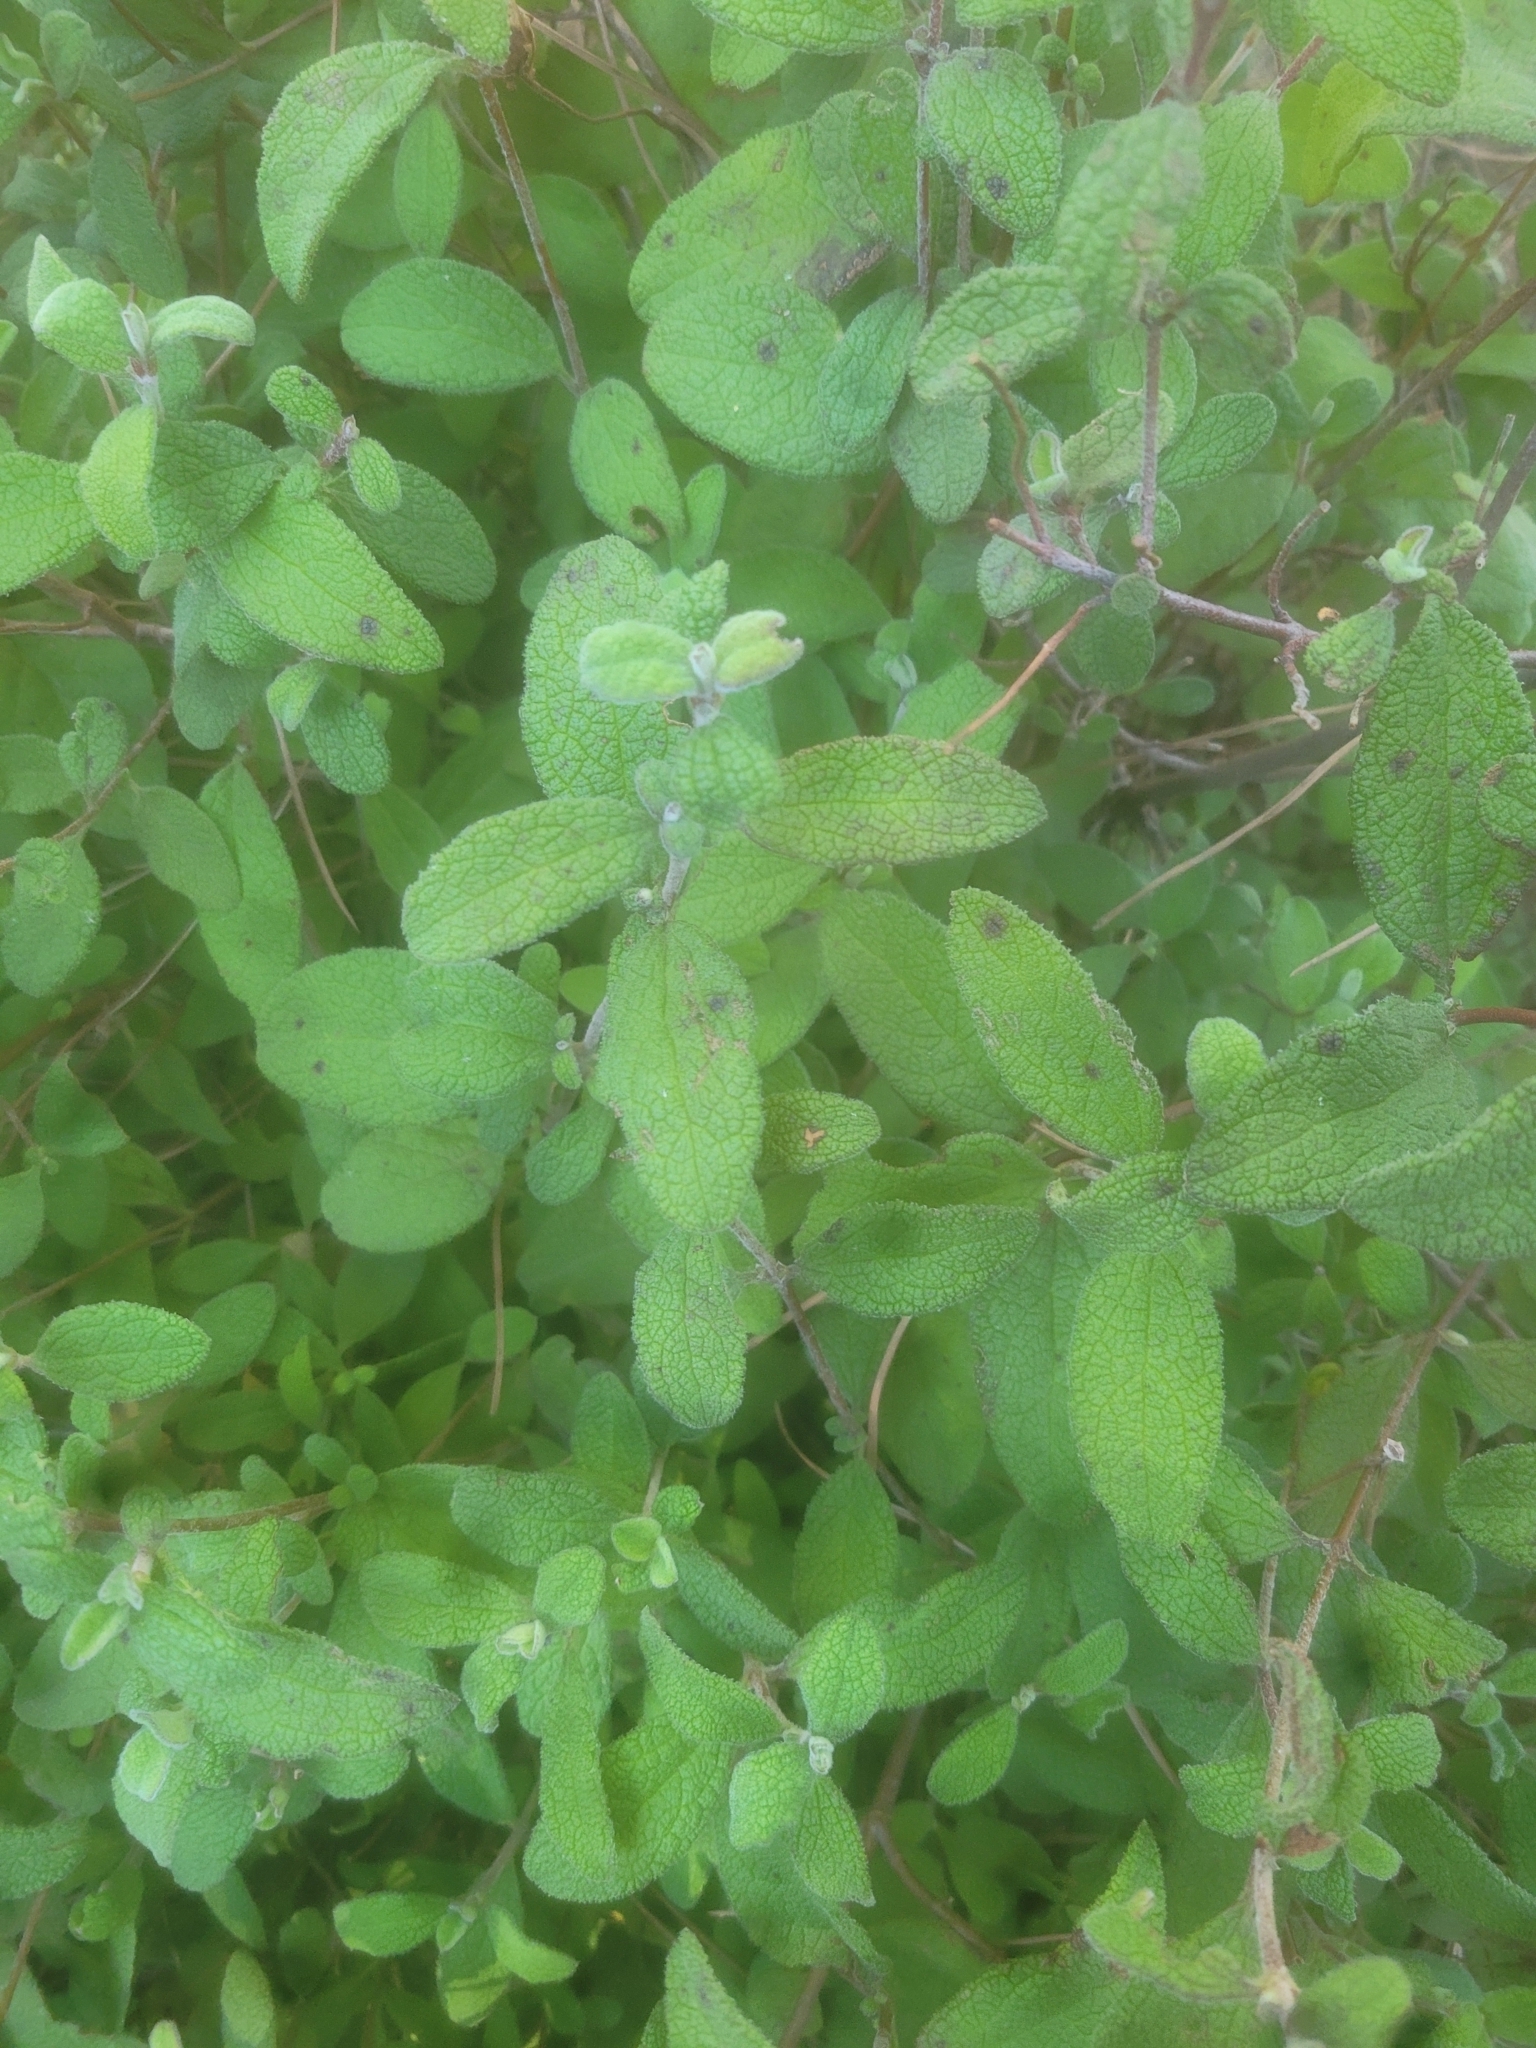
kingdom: Plantae
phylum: Tracheophyta
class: Magnoliopsida
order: Malvales
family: Cistaceae
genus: Cistus
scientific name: Cistus salviifolius
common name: Salvia cistus
